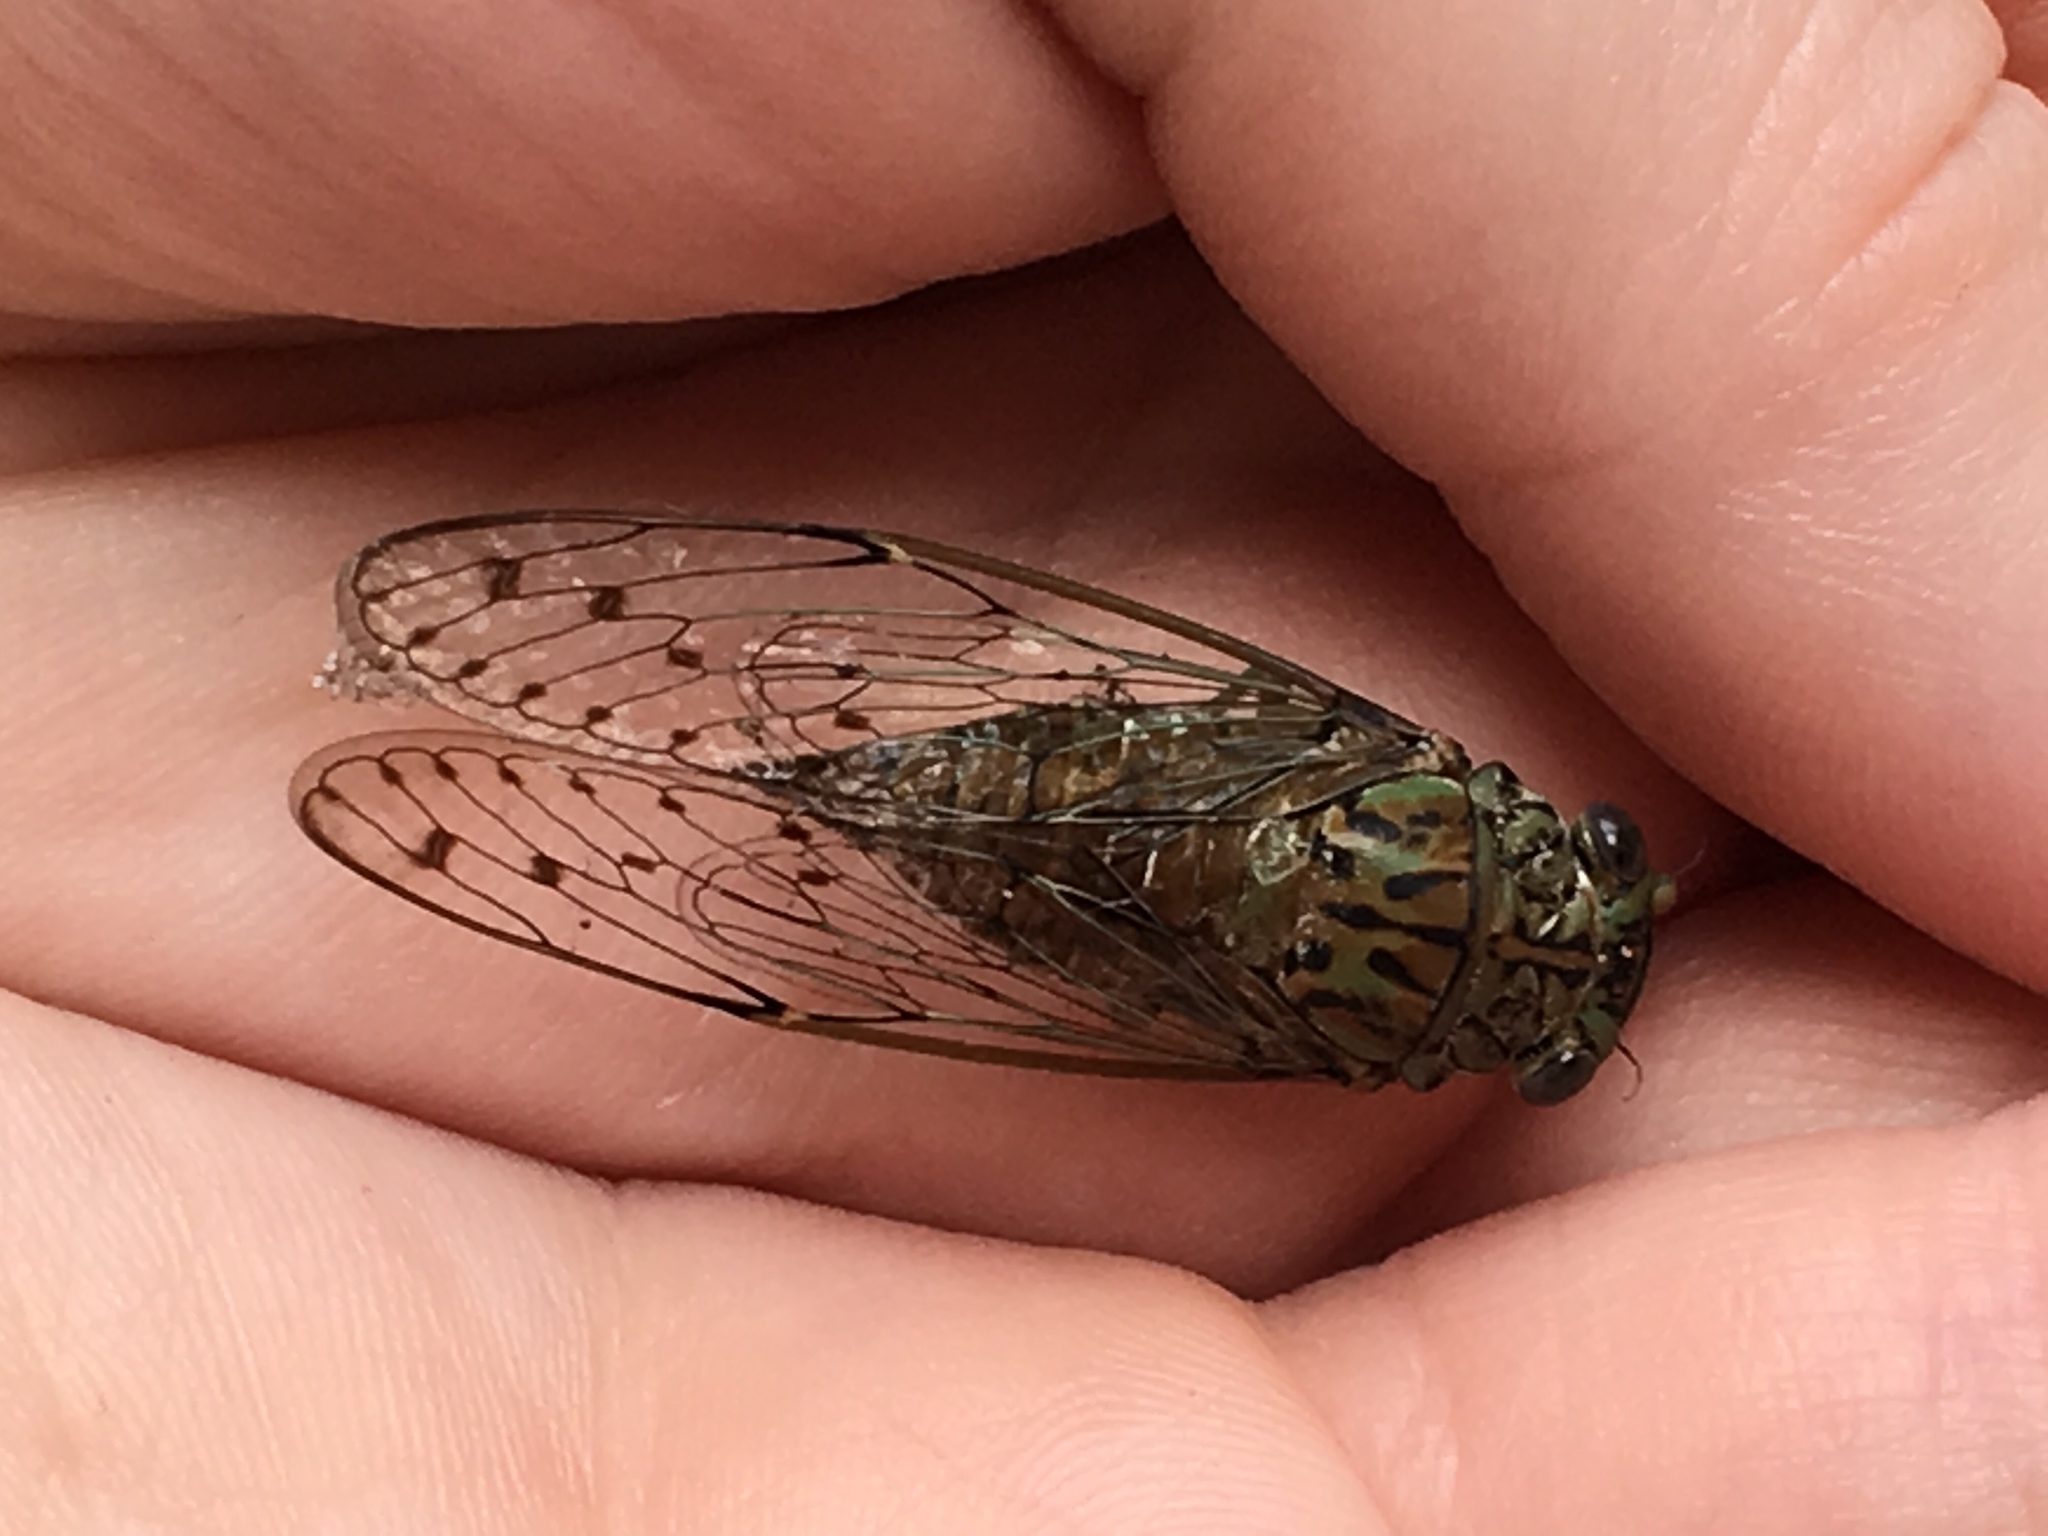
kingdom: Animalia
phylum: Arthropoda
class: Insecta
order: Hemiptera
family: Cicadidae
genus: Neocicada
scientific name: Neocicada hieroglyphica
